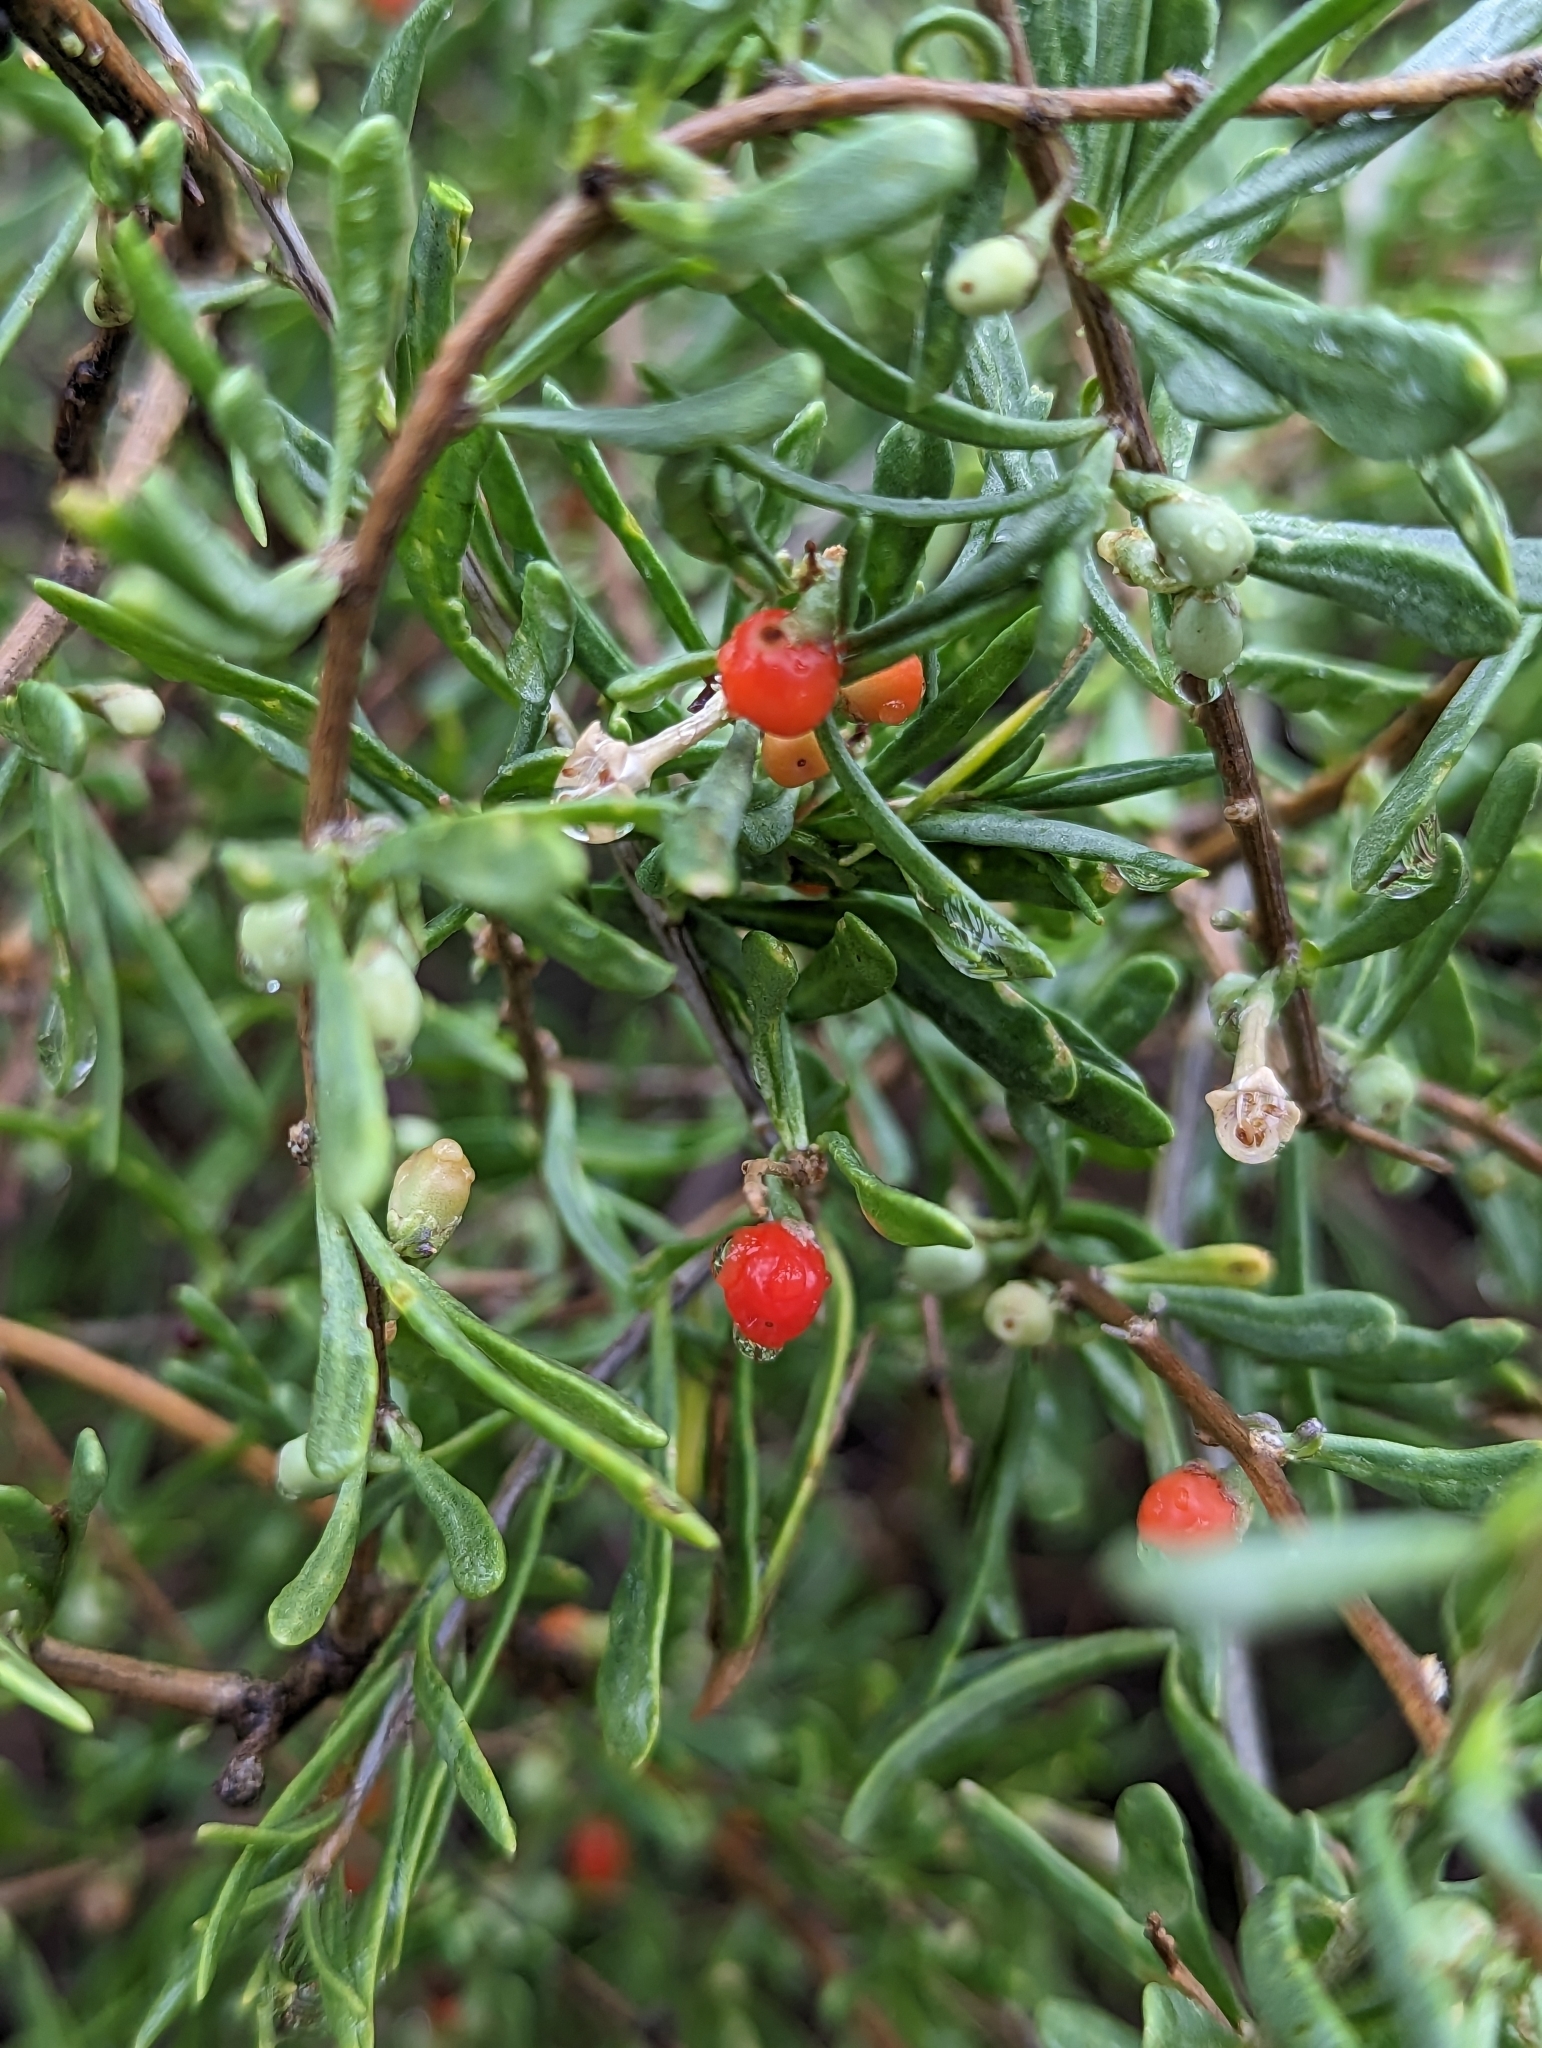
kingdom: Plantae
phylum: Tracheophyta
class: Magnoliopsida
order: Solanales
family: Solanaceae
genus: Lycium
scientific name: Lycium andersonii
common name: Water-jacket
